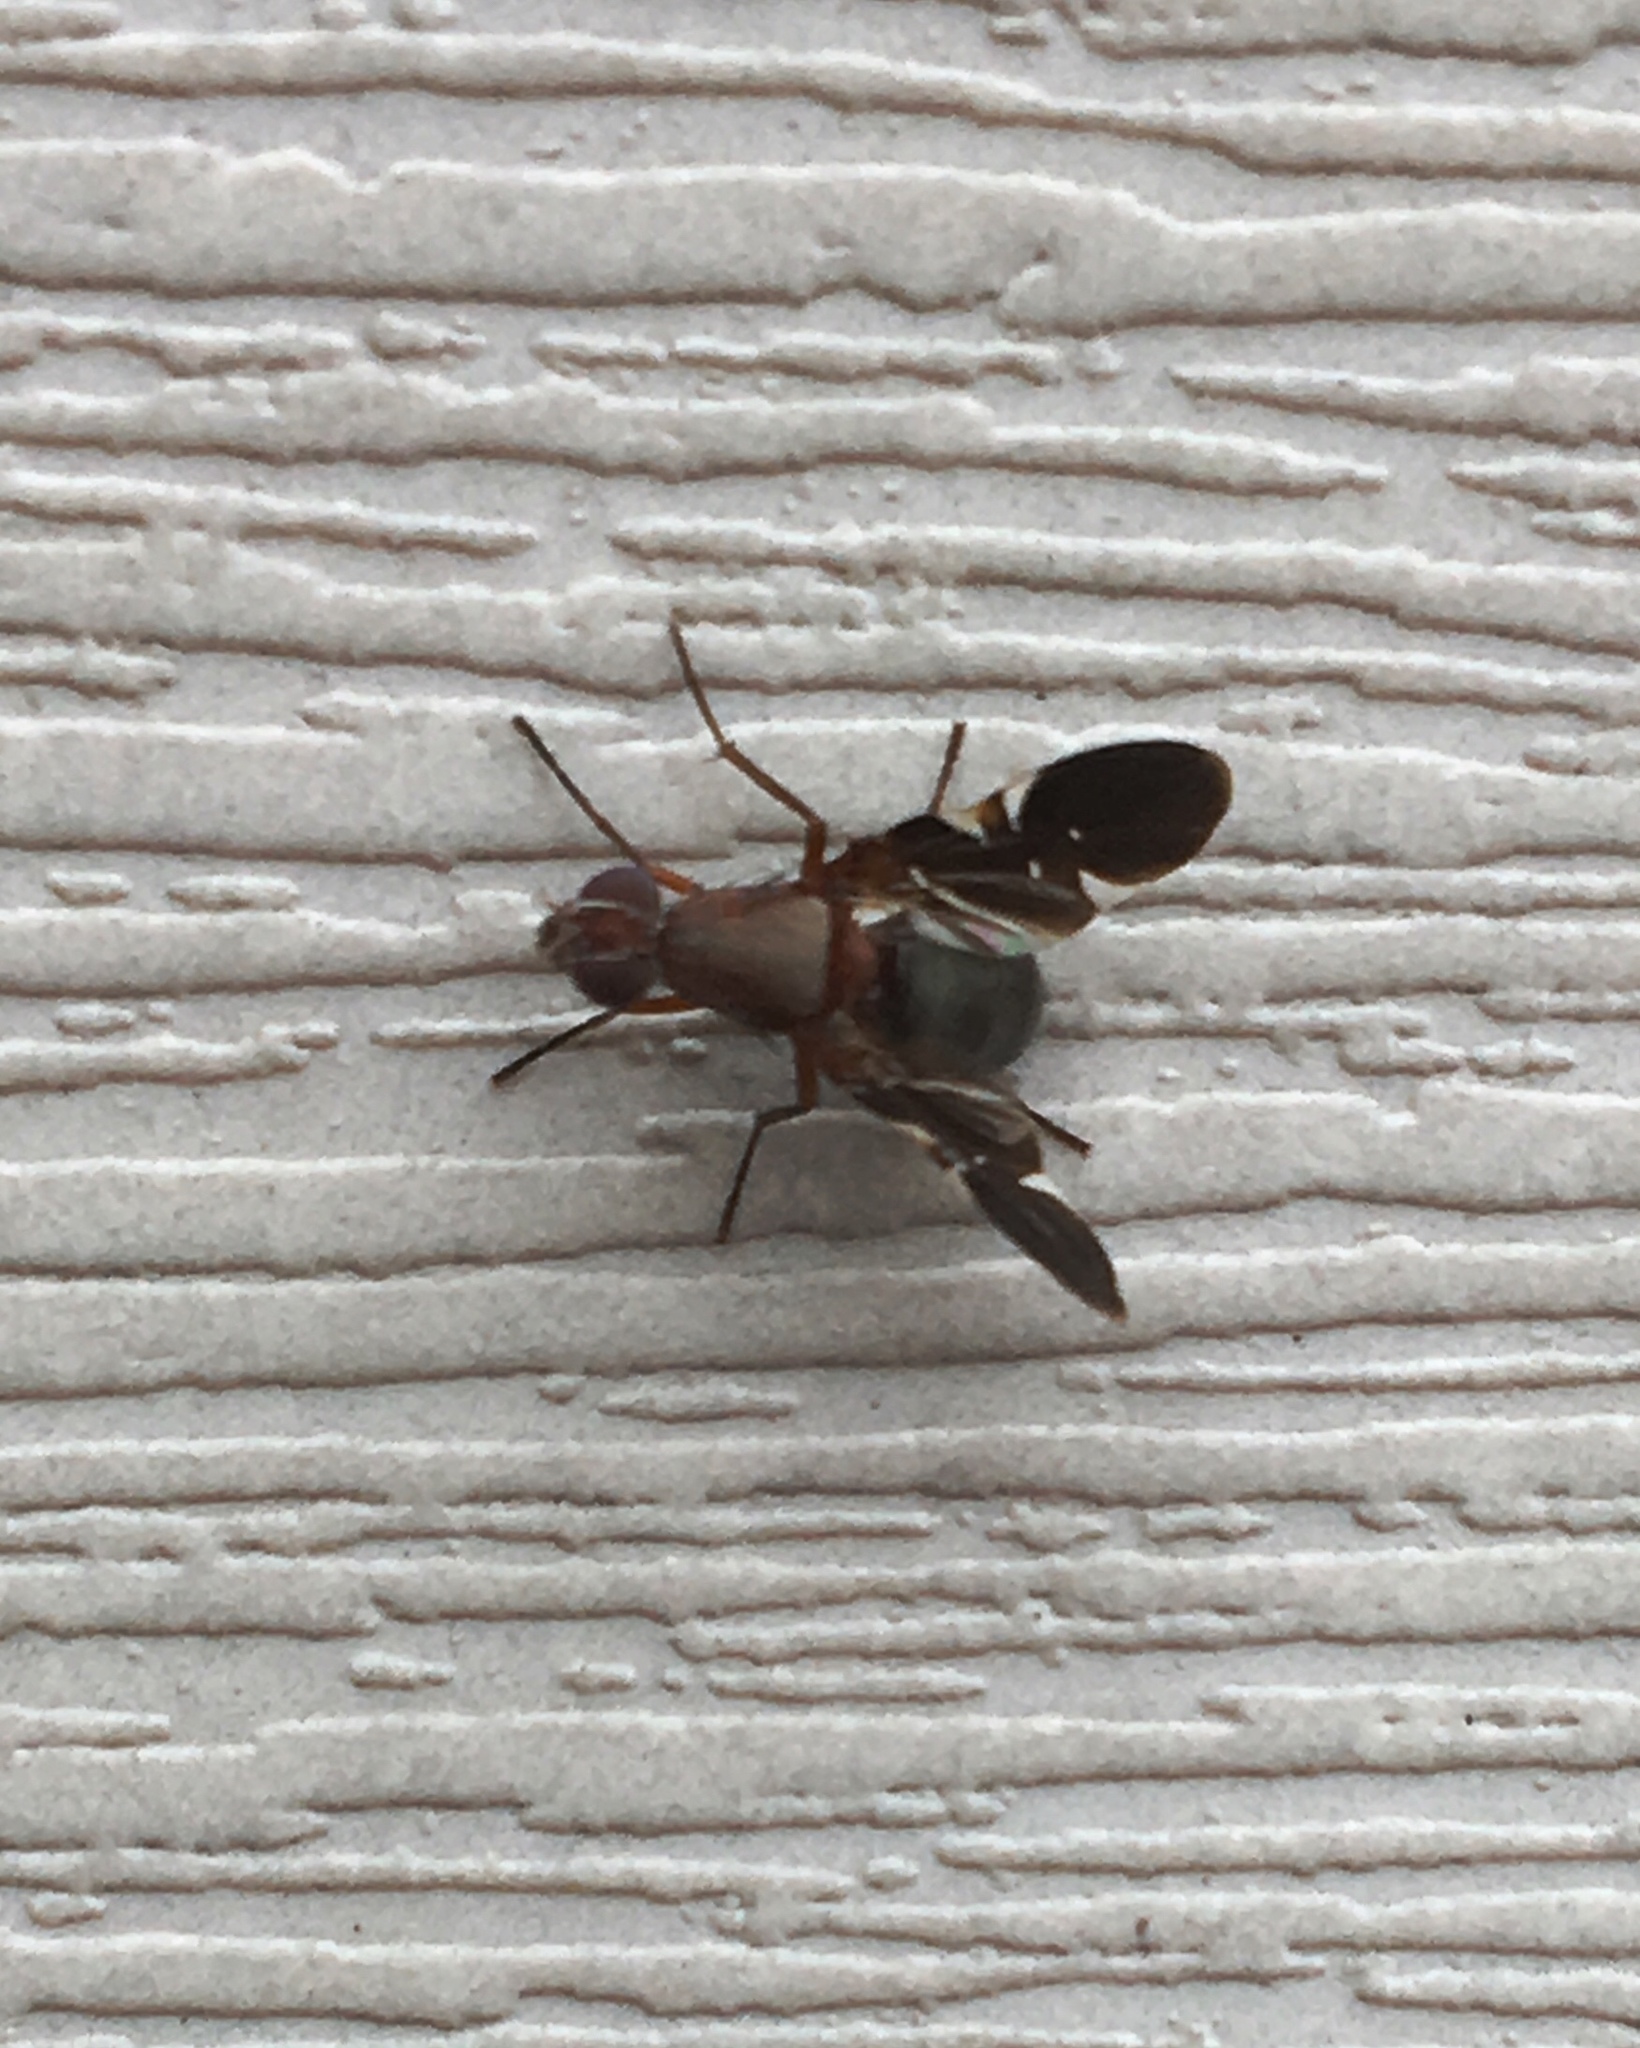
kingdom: Animalia
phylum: Arthropoda
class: Insecta
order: Diptera
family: Ulidiidae
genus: Delphinia
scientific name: Delphinia picta
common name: Common picture-winged fly
